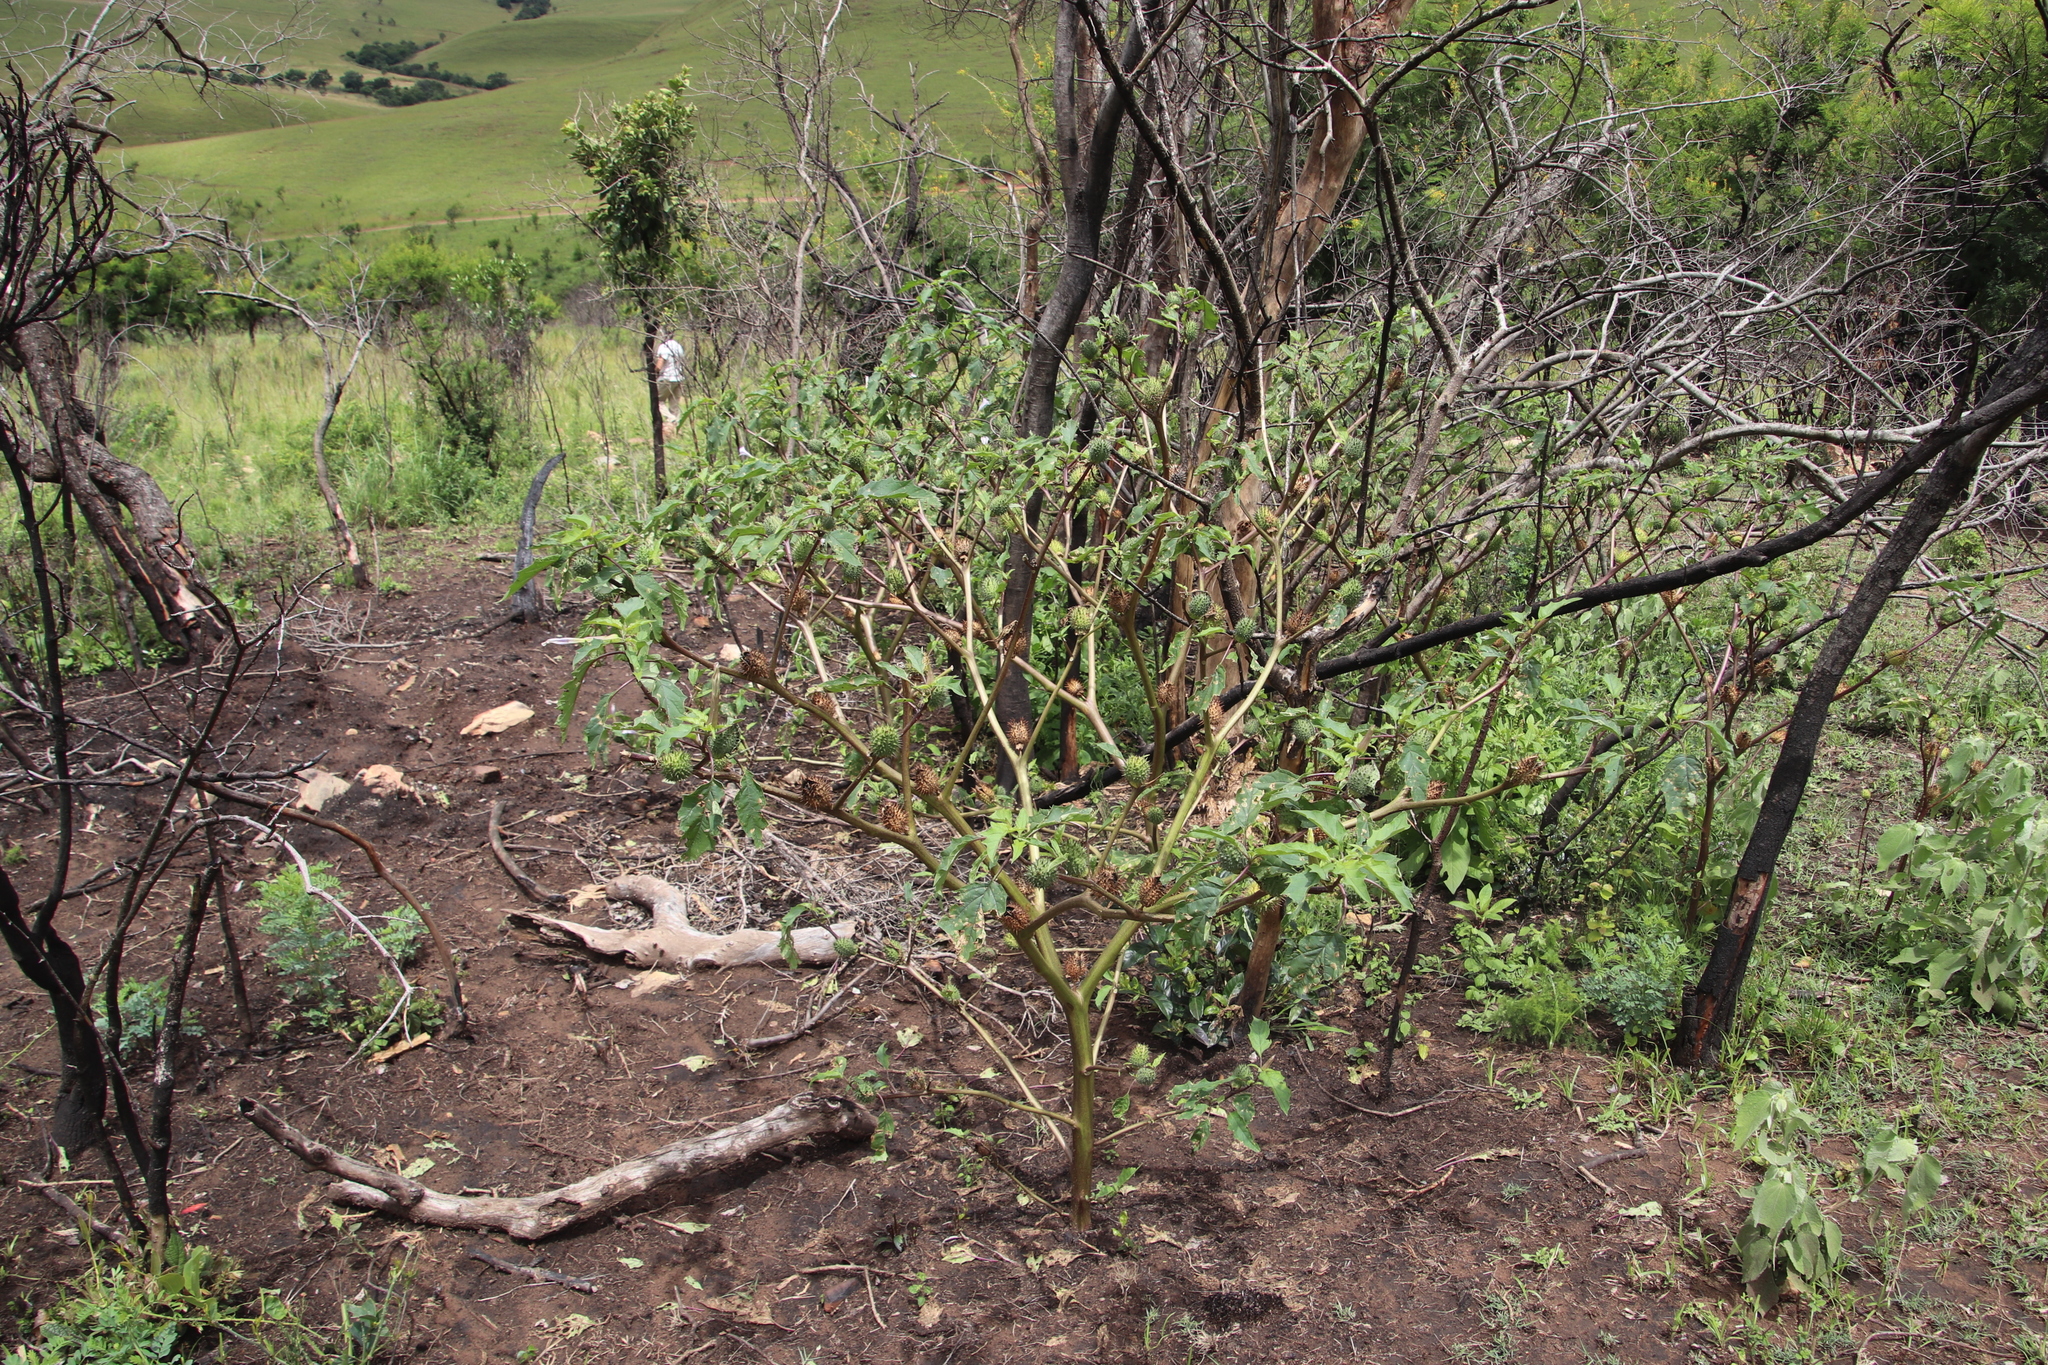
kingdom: Plantae
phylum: Tracheophyta
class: Magnoliopsida
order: Solanales
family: Solanaceae
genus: Datura
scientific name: Datura stramonium
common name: Thorn-apple
